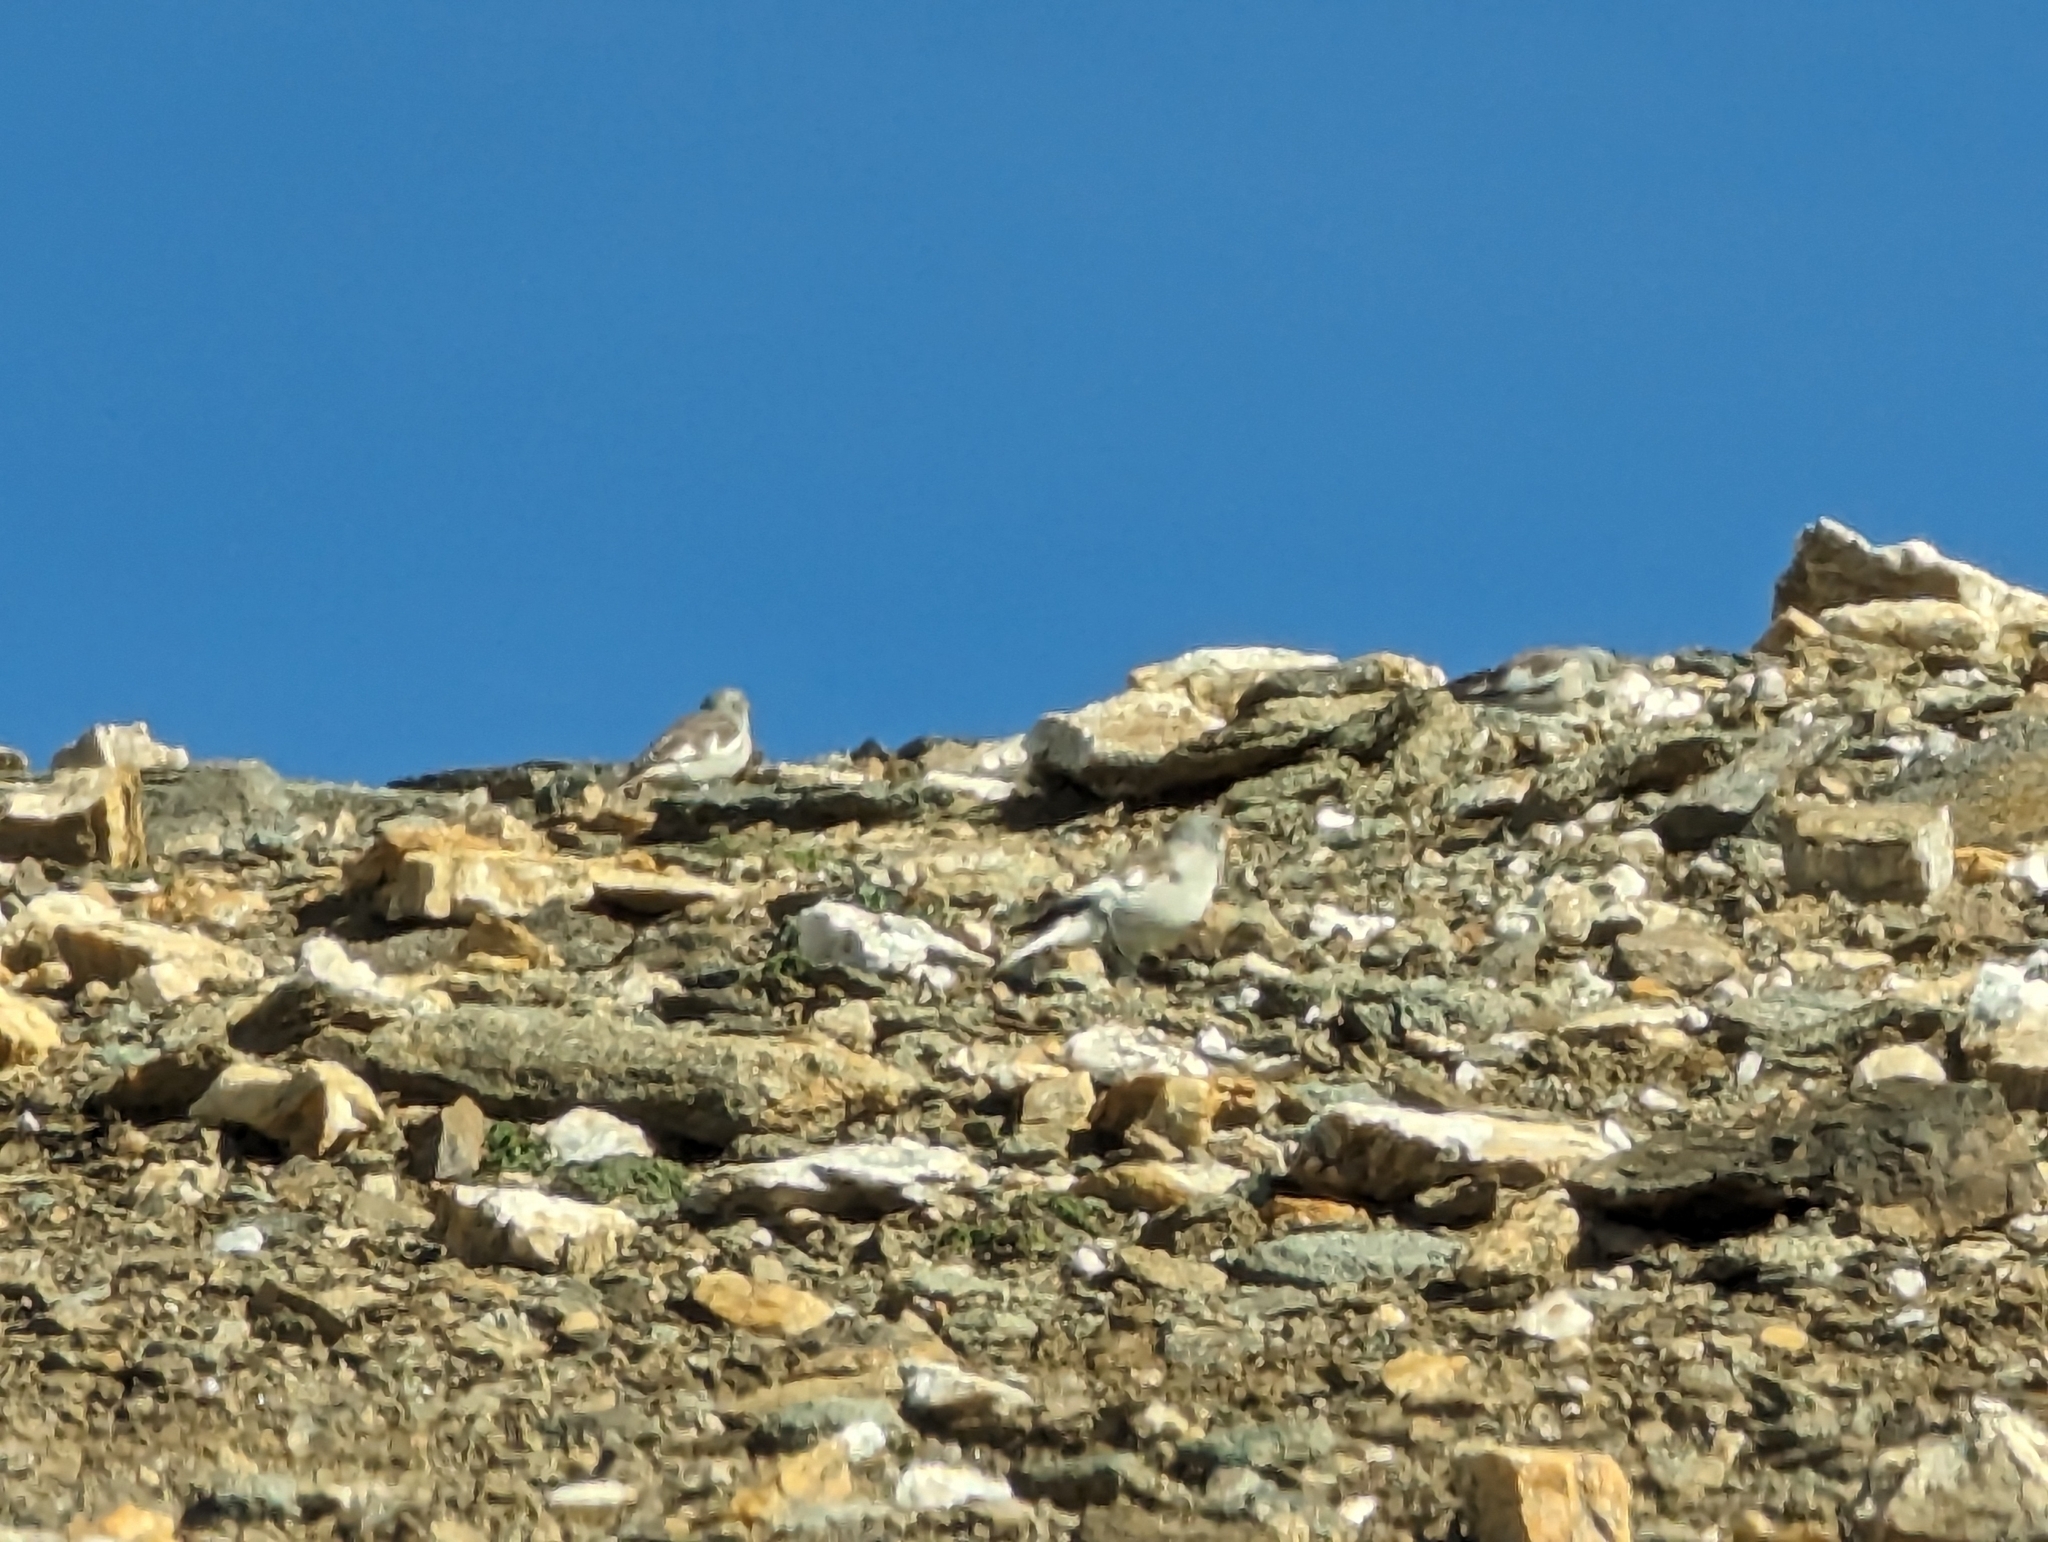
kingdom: Animalia
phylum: Chordata
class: Aves
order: Passeriformes
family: Passeridae
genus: Montifringilla
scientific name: Montifringilla nivalis
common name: White-winged snowfinch
